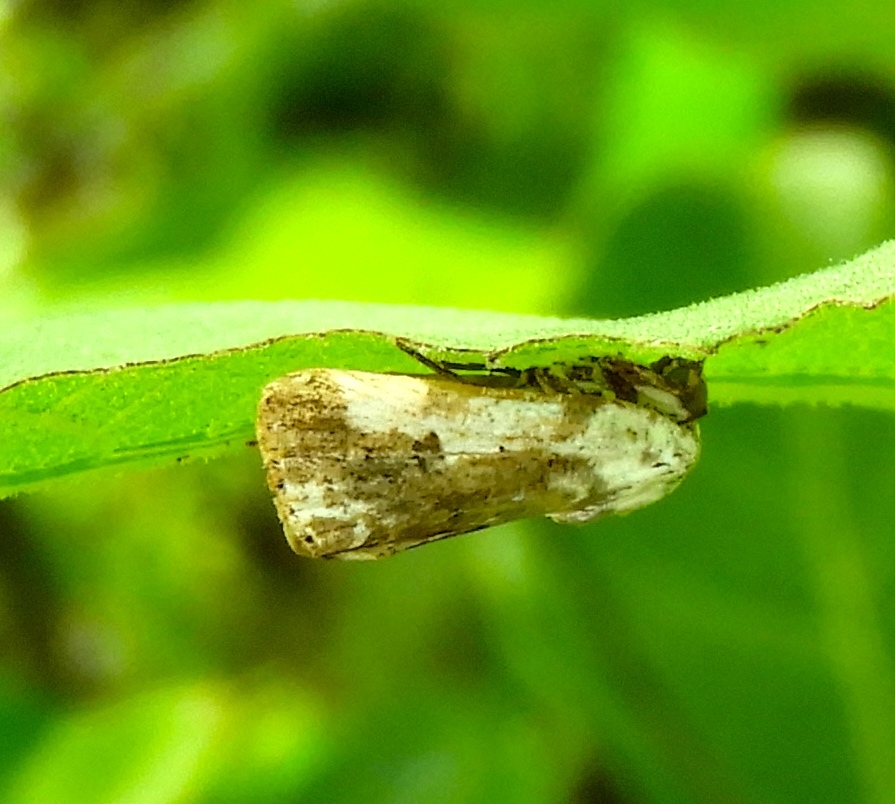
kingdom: Animalia
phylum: Arthropoda
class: Insecta
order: Lepidoptera
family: Noctuidae
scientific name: Noctuidae
